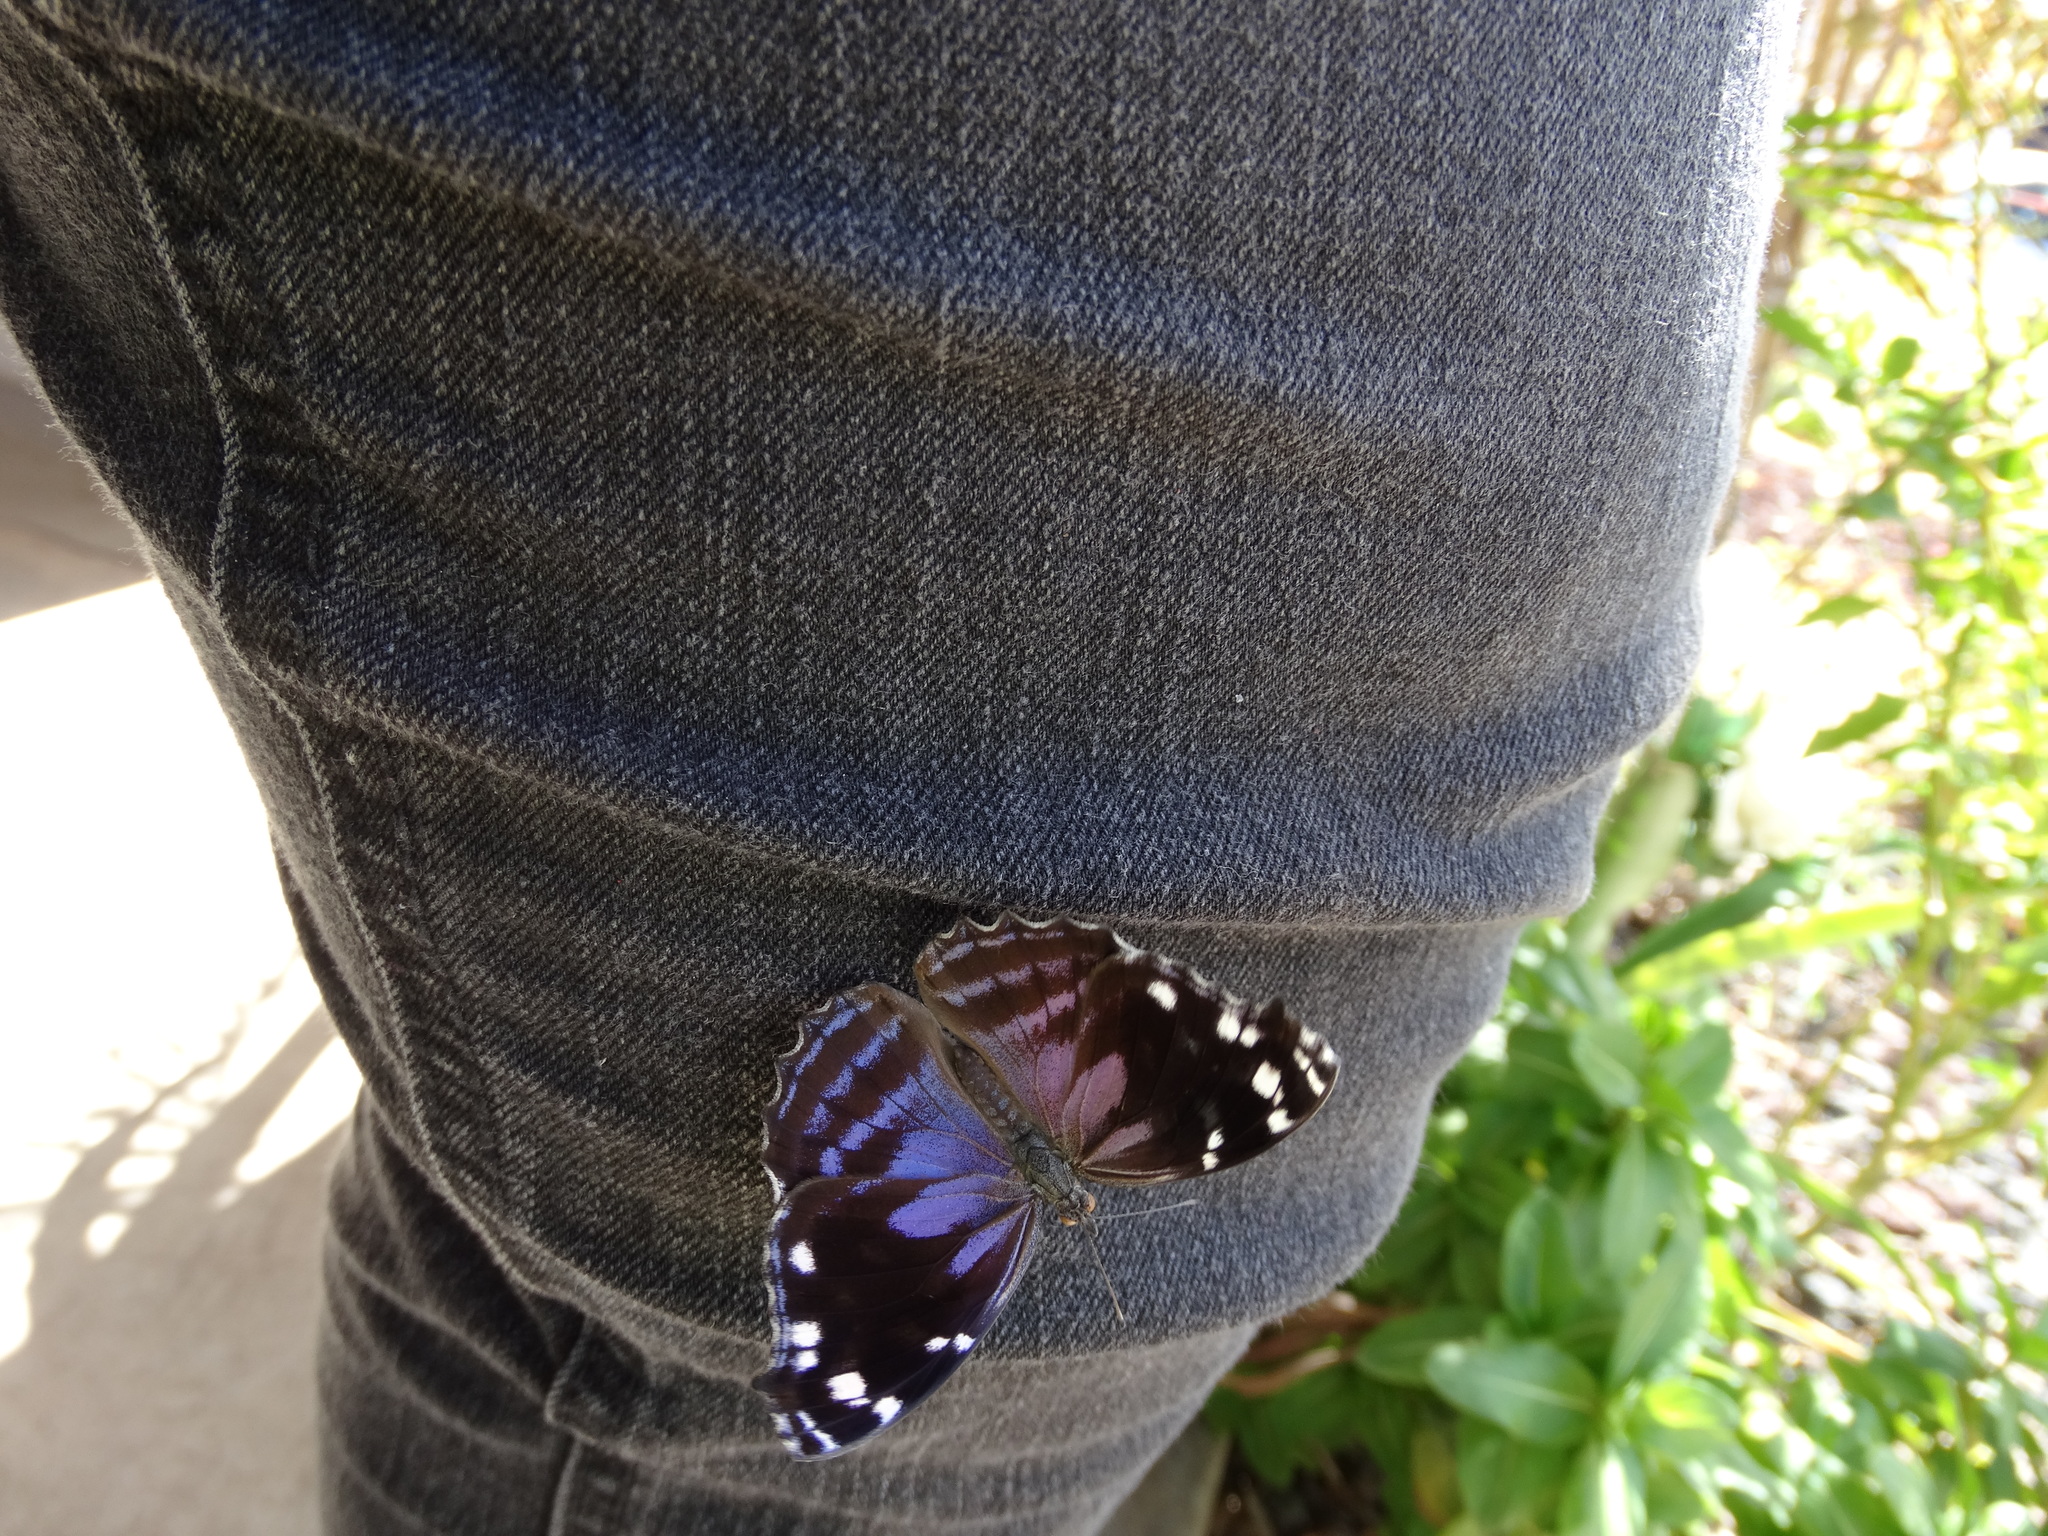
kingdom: Animalia
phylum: Arthropoda
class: Insecta
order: Lepidoptera
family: Nymphalidae
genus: Myscelia
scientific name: Myscelia cyananthe
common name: Blackened bluewing
